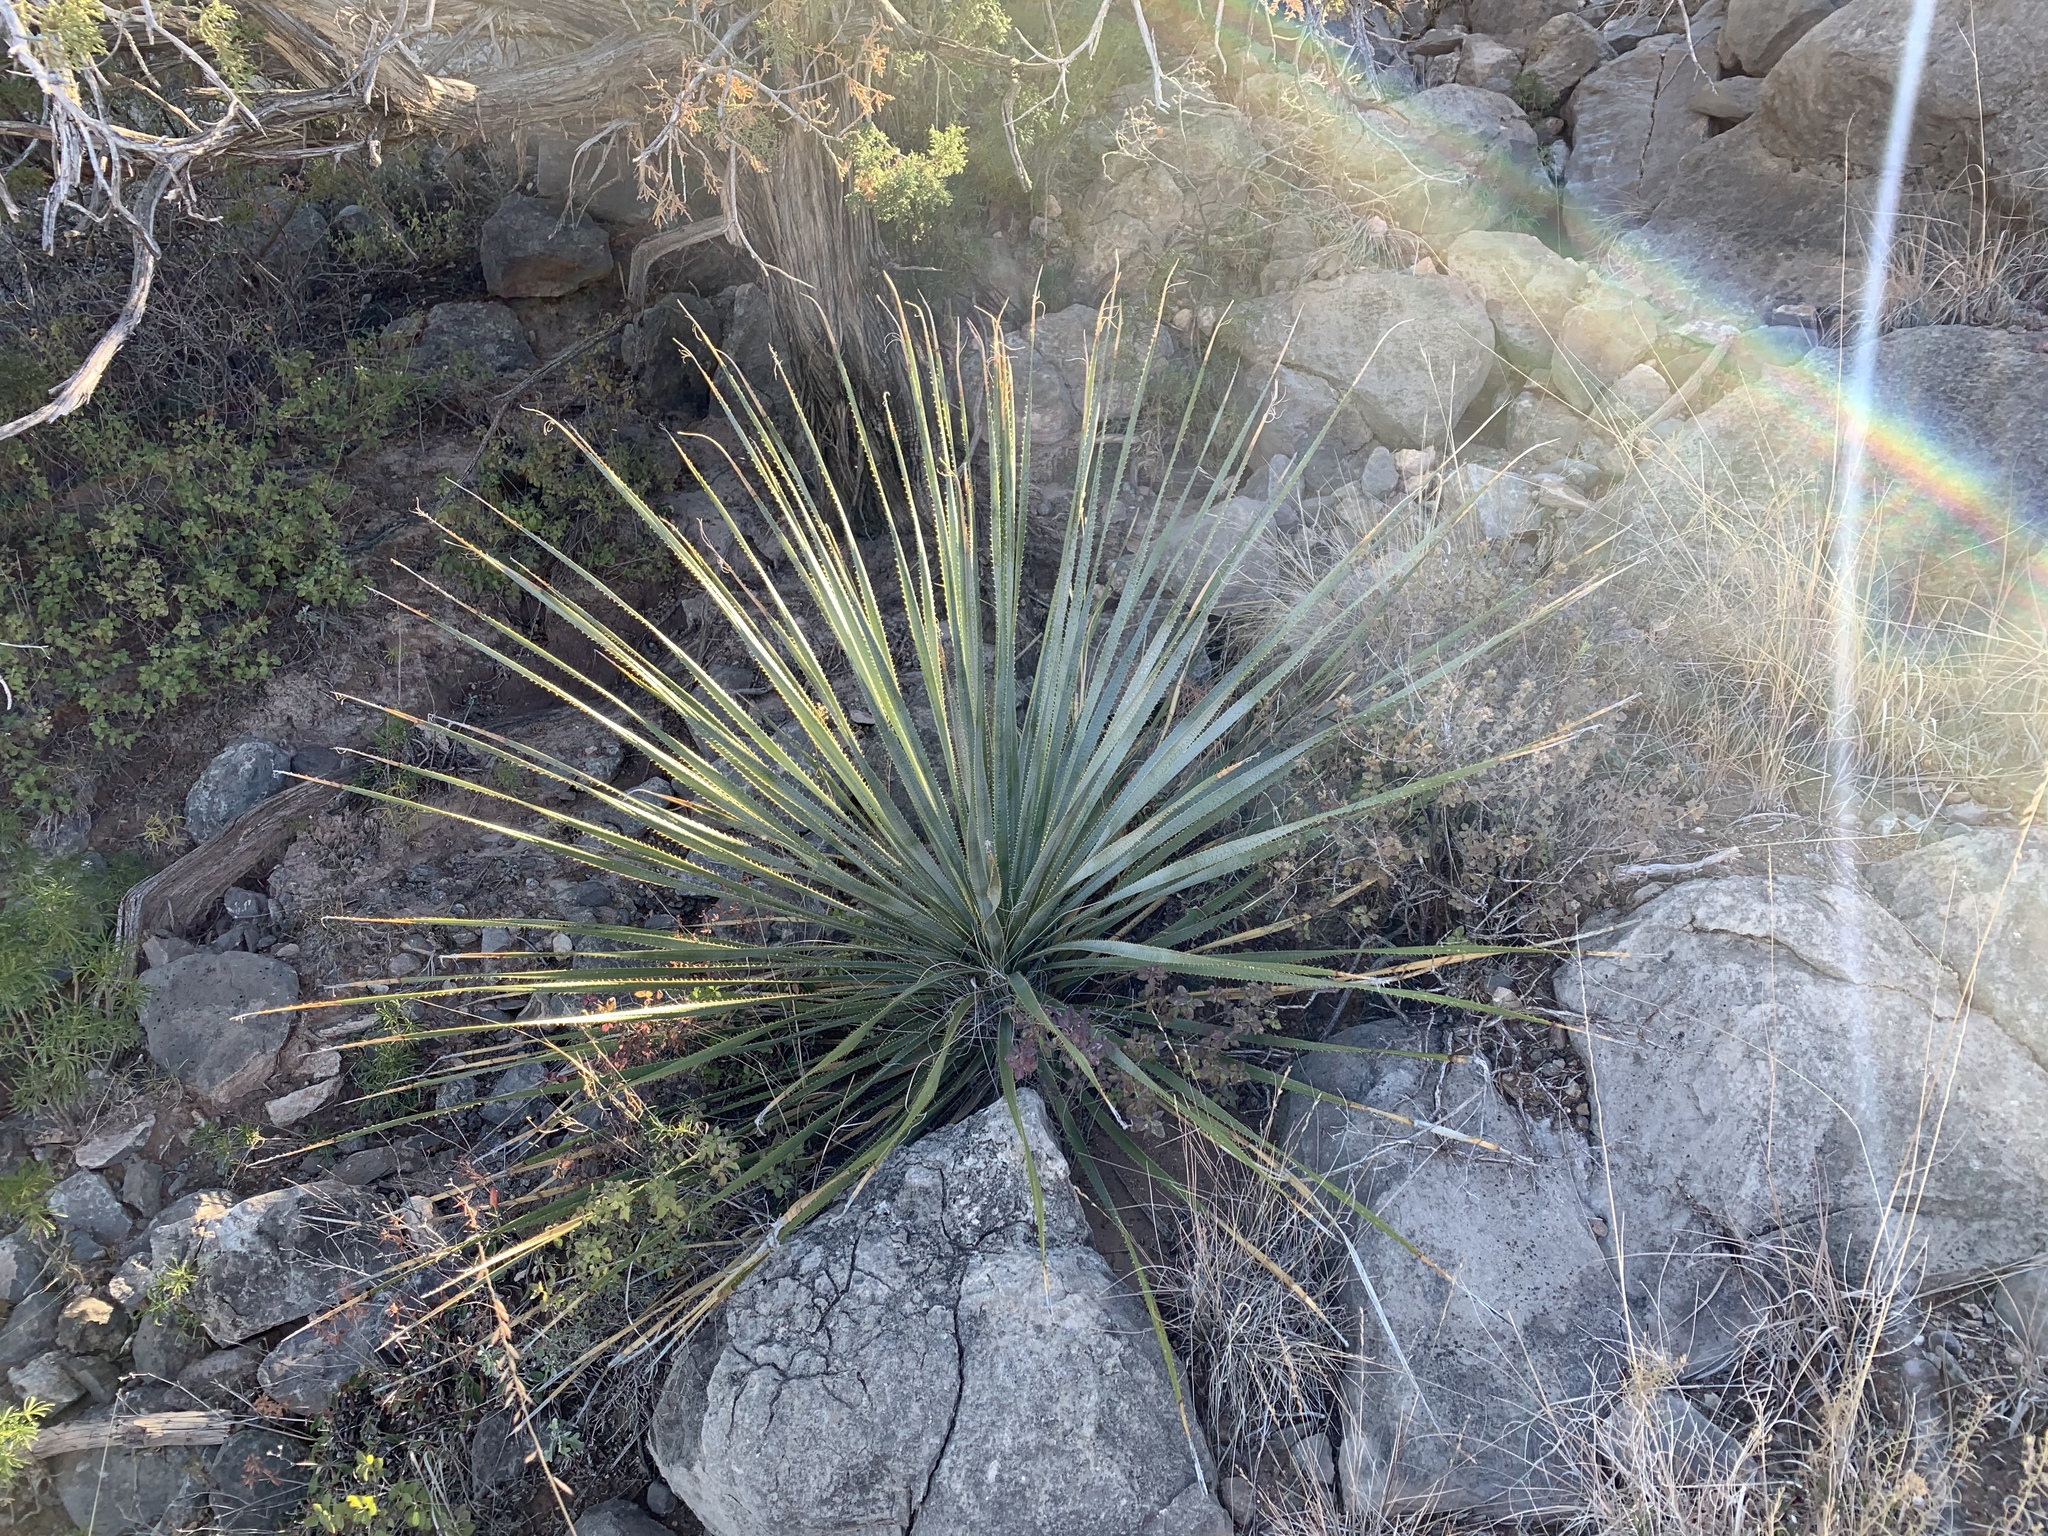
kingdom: Plantae
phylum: Tracheophyta
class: Liliopsida
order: Asparagales
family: Asparagaceae
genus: Dasylirion
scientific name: Dasylirion wheeleri
